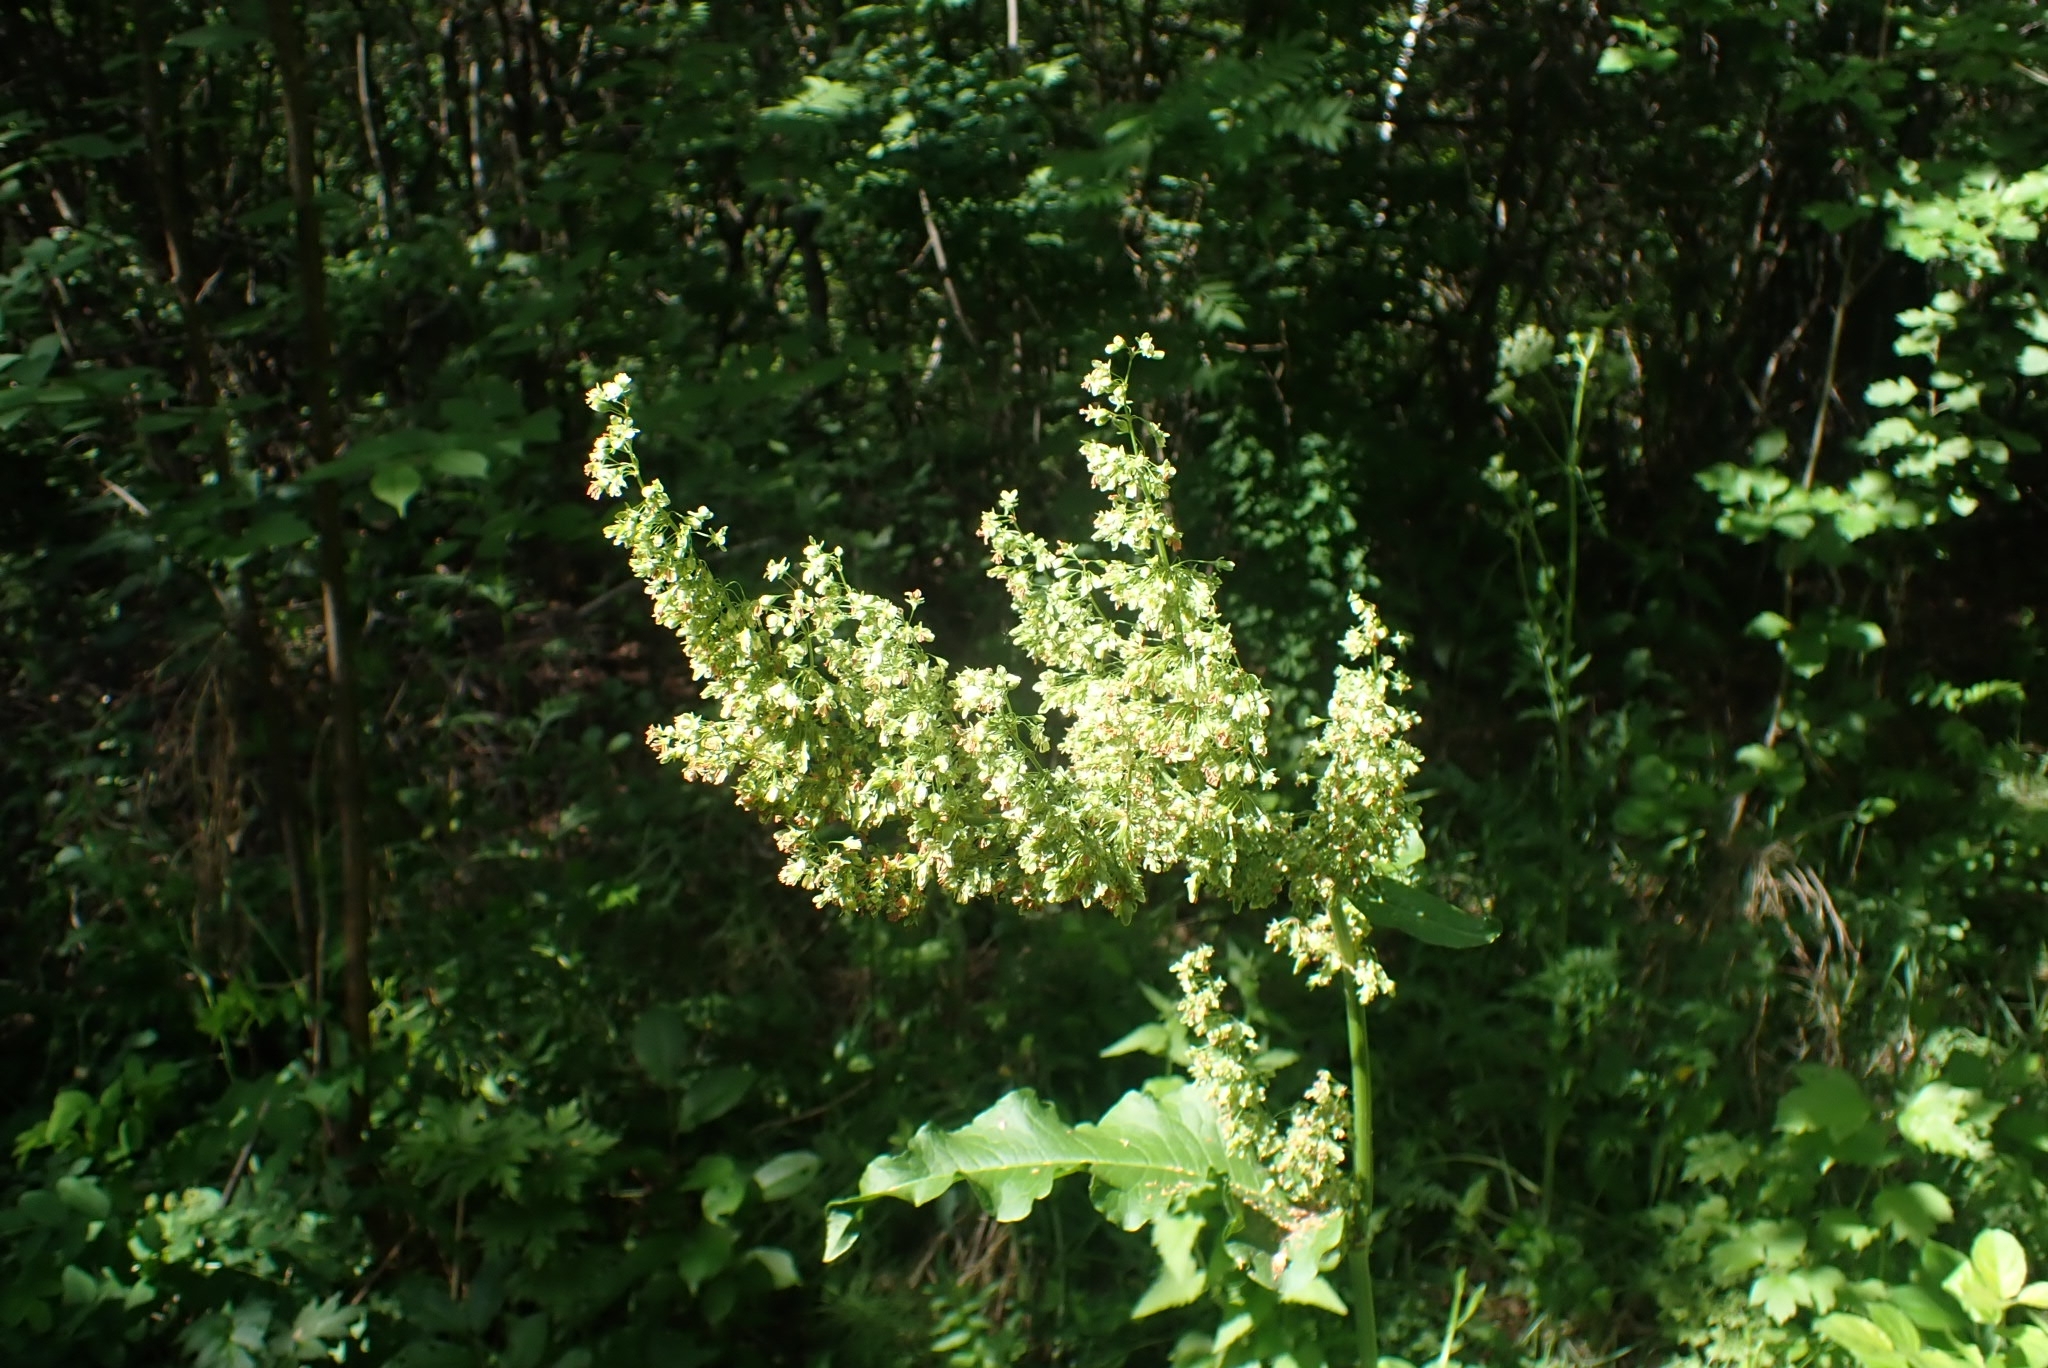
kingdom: Plantae
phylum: Tracheophyta
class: Magnoliopsida
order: Caryophyllales
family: Polygonaceae
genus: Rumex
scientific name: Rumex confertus
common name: Russian dock
